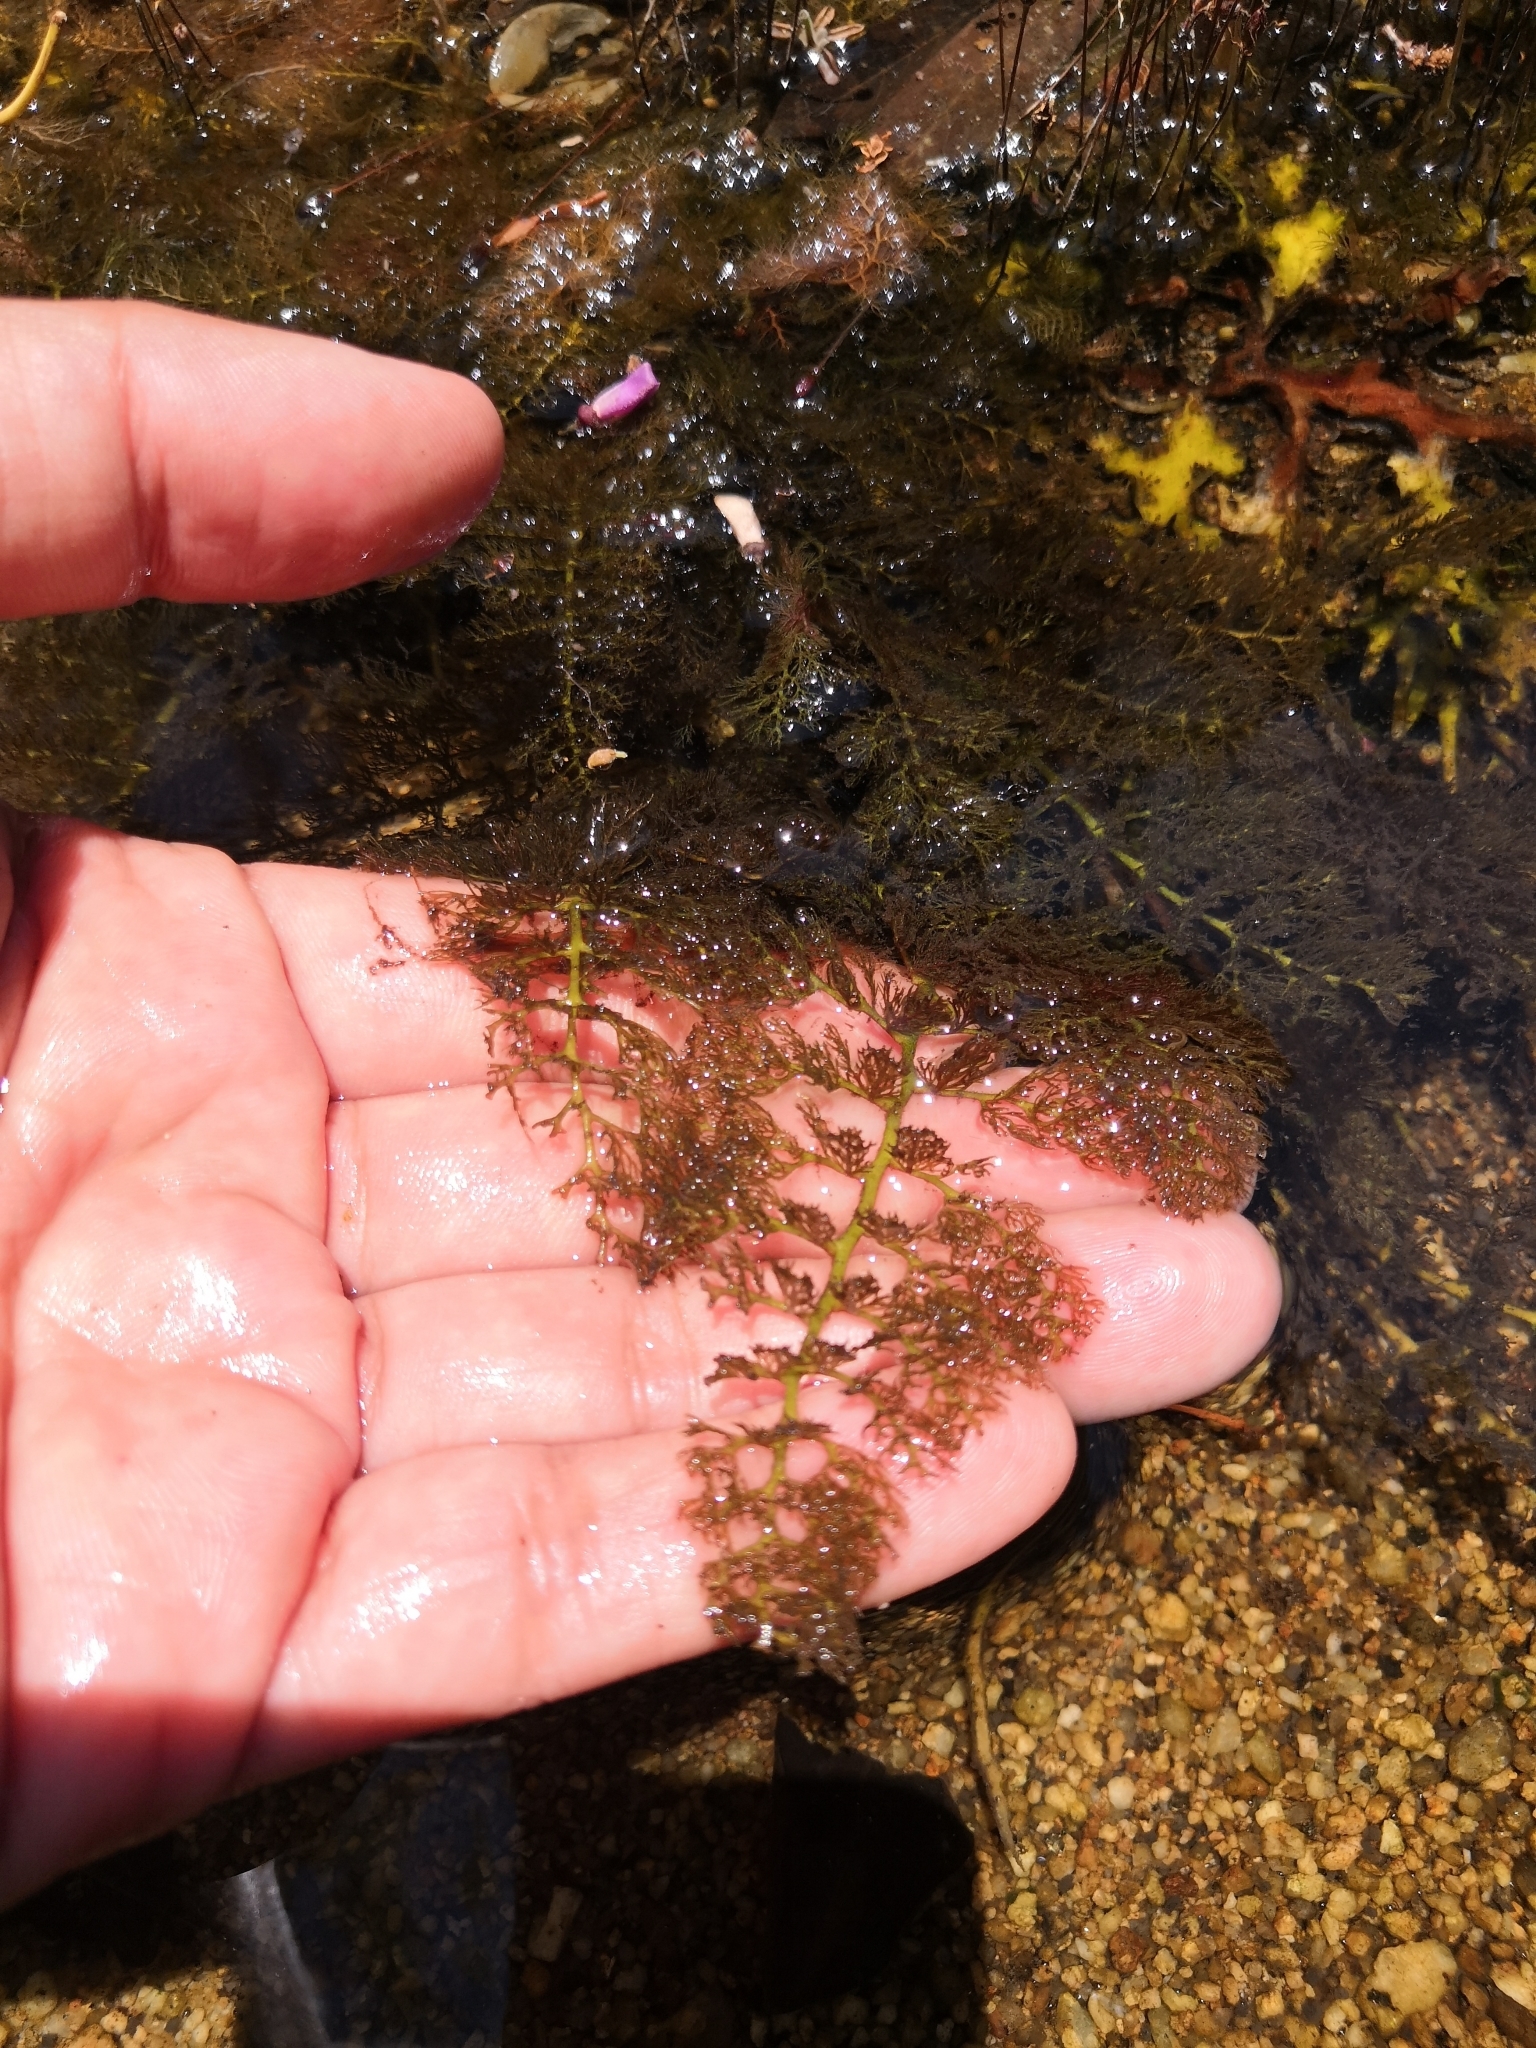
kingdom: Plantae
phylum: Tracheophyta
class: Magnoliopsida
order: Malpighiales
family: Podostemaceae
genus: Marathrum
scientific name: Marathrum foeniculaceum
